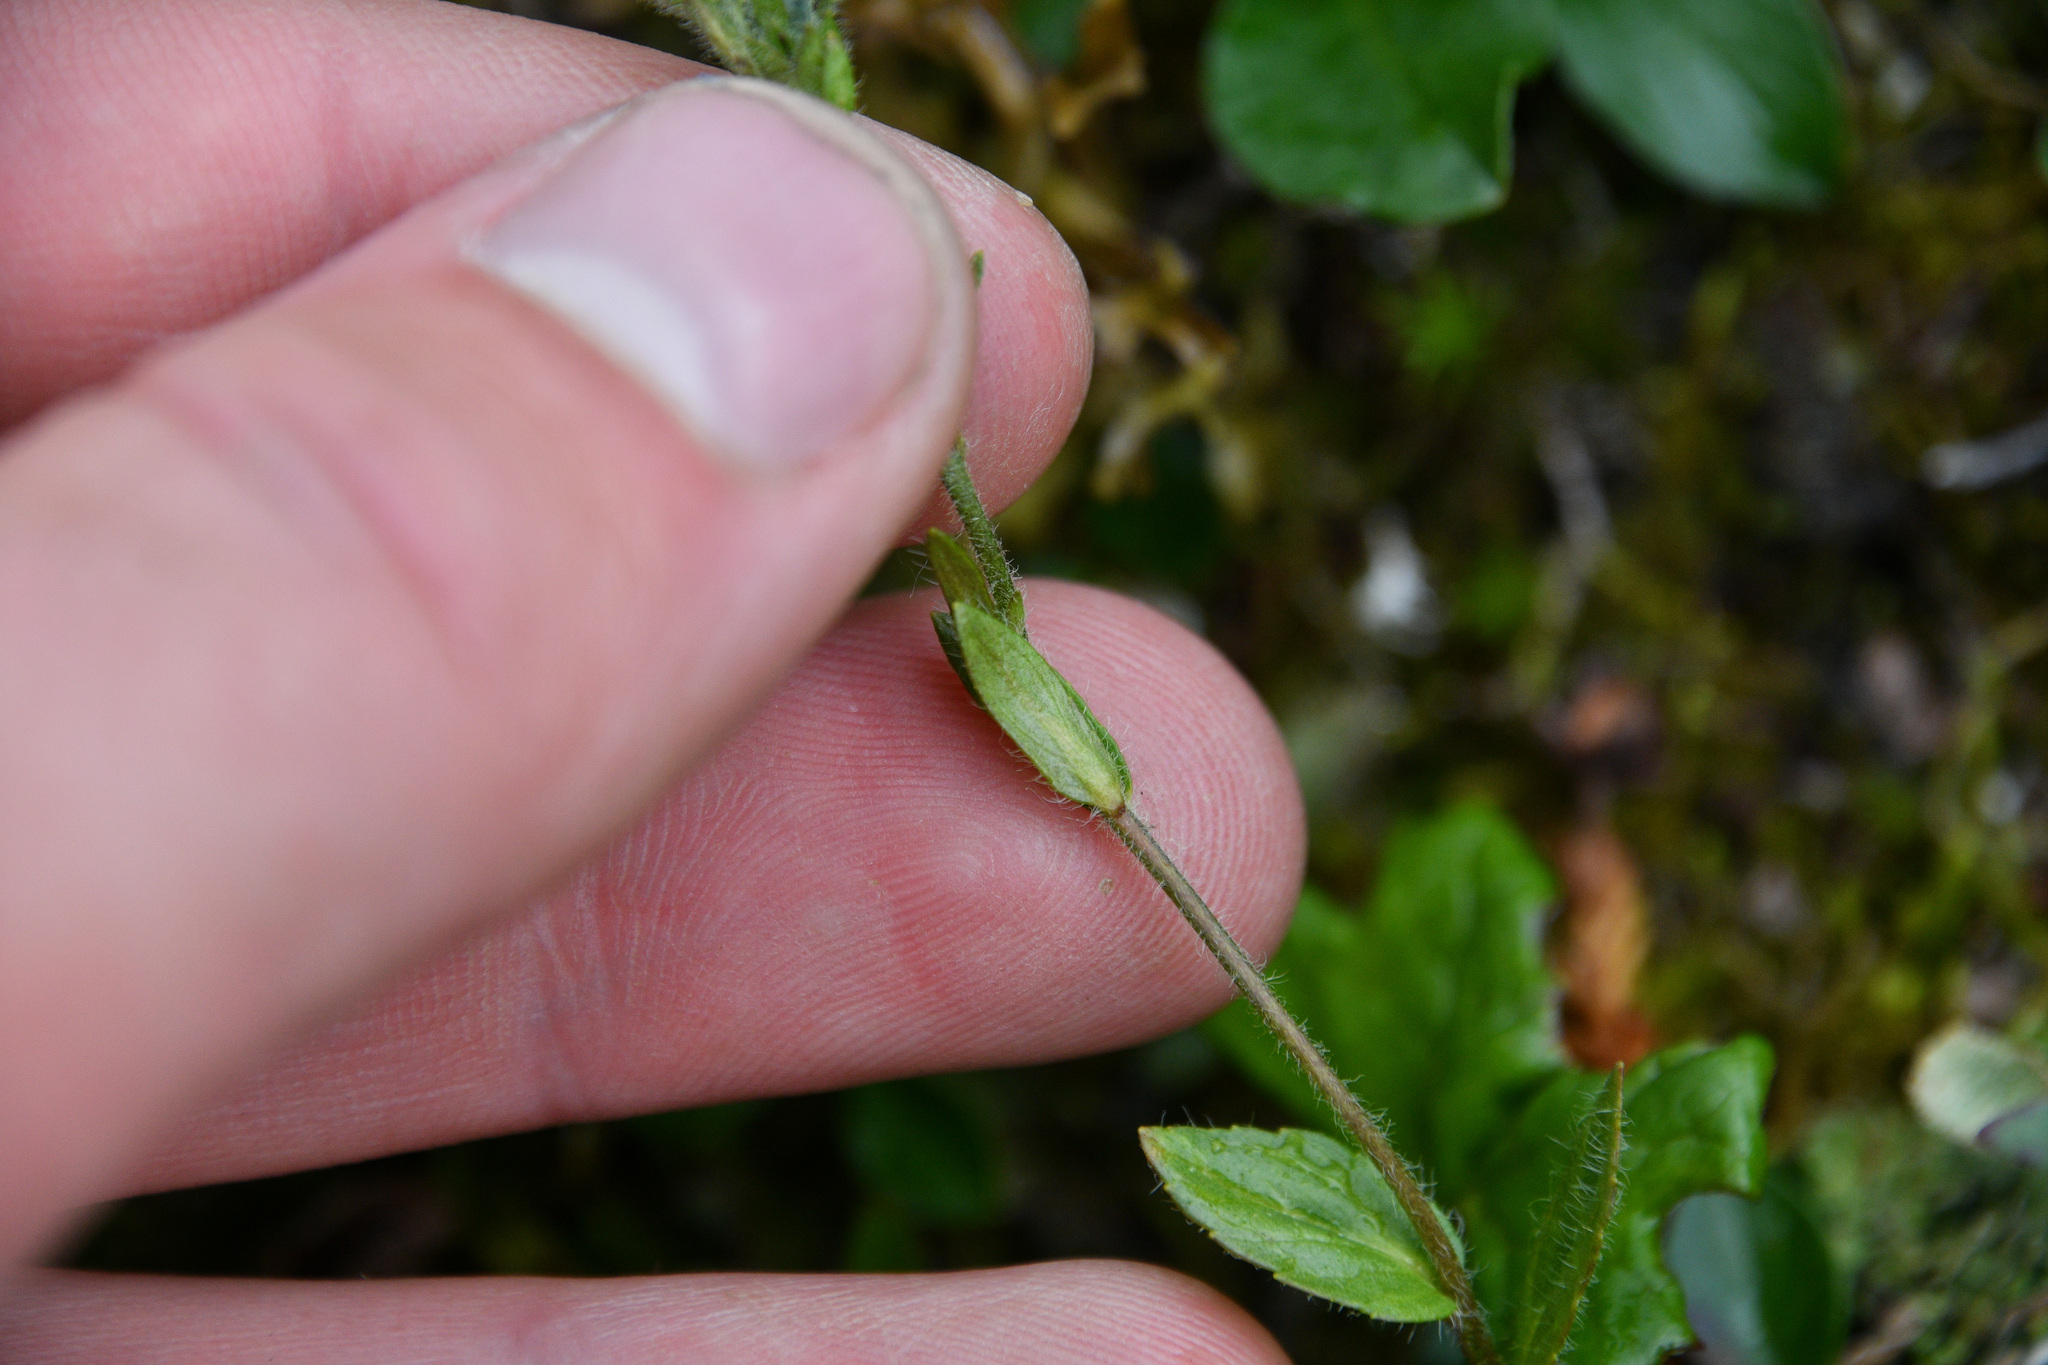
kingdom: Plantae
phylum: Tracheophyta
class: Magnoliopsida
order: Lamiales
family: Plantaginaceae
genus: Veronica
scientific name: Veronica wormskjoldii
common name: American alpine speedwell
